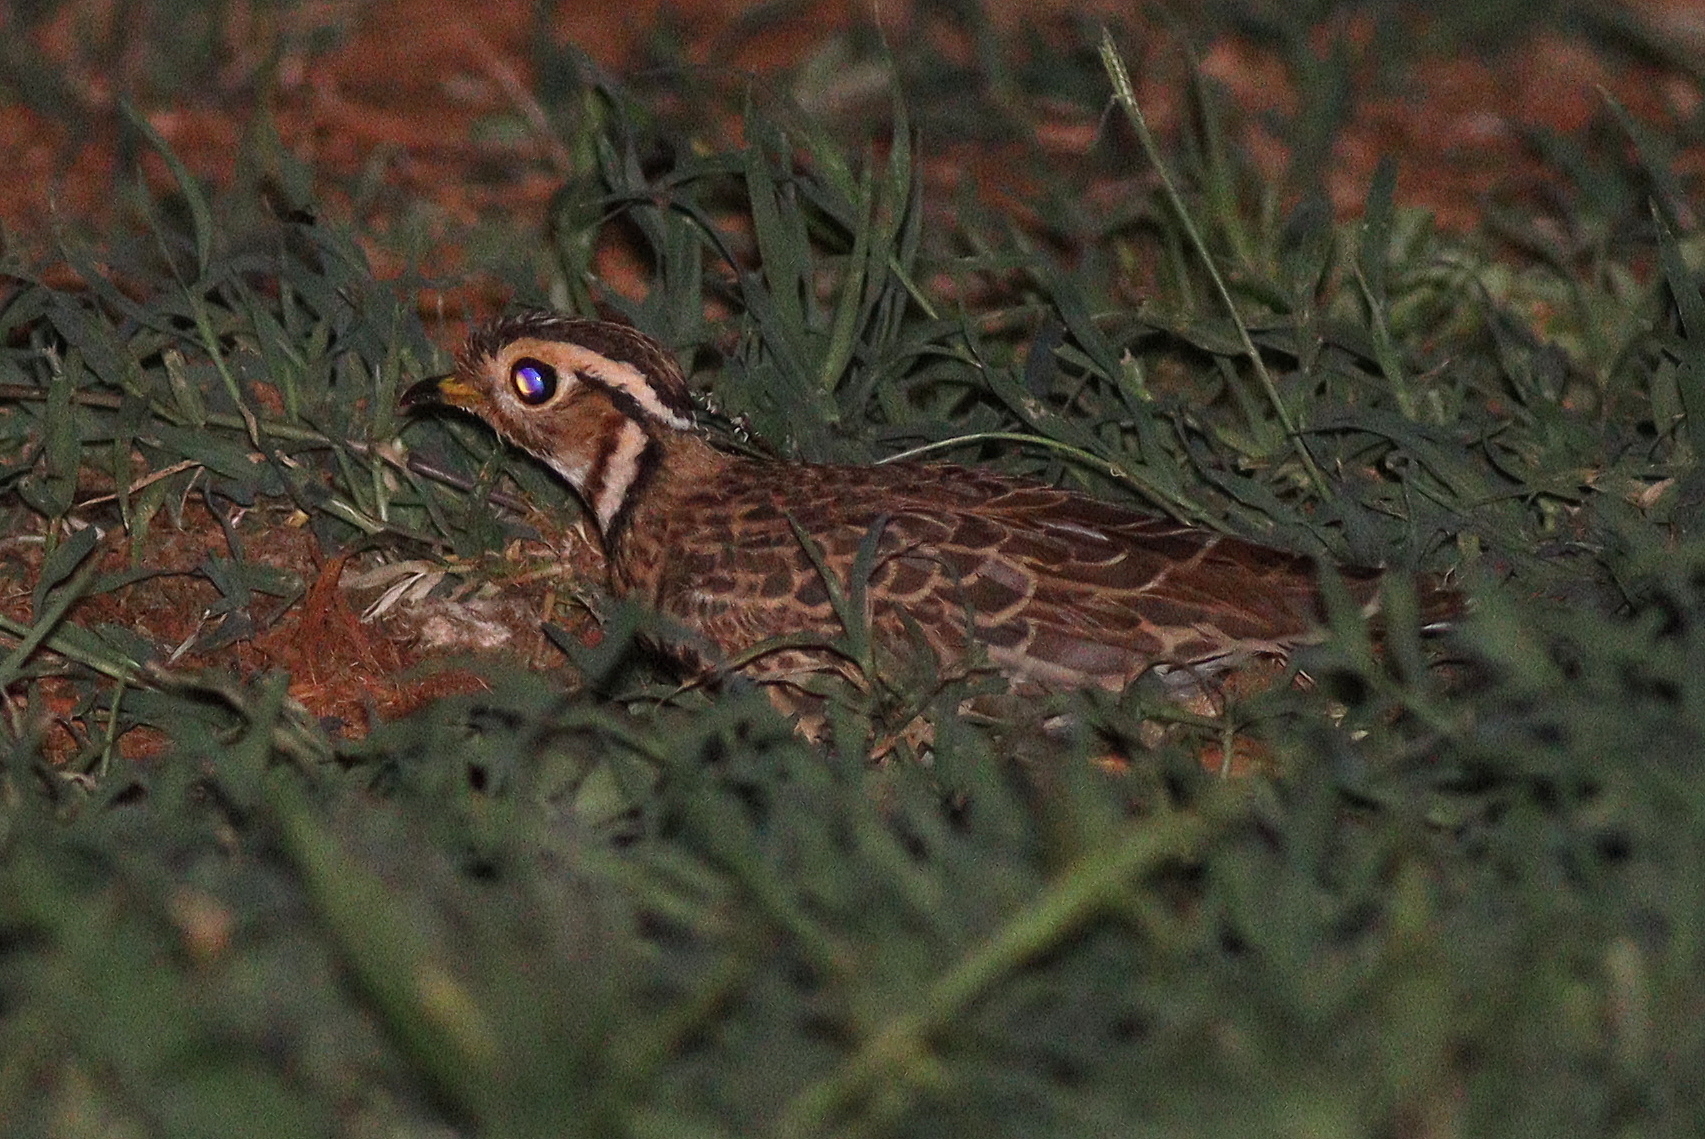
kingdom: Animalia
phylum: Chordata
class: Aves
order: Charadriiformes
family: Glareolidae
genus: Rhinoptilus
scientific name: Rhinoptilus cinctus
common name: Three-banded courser
